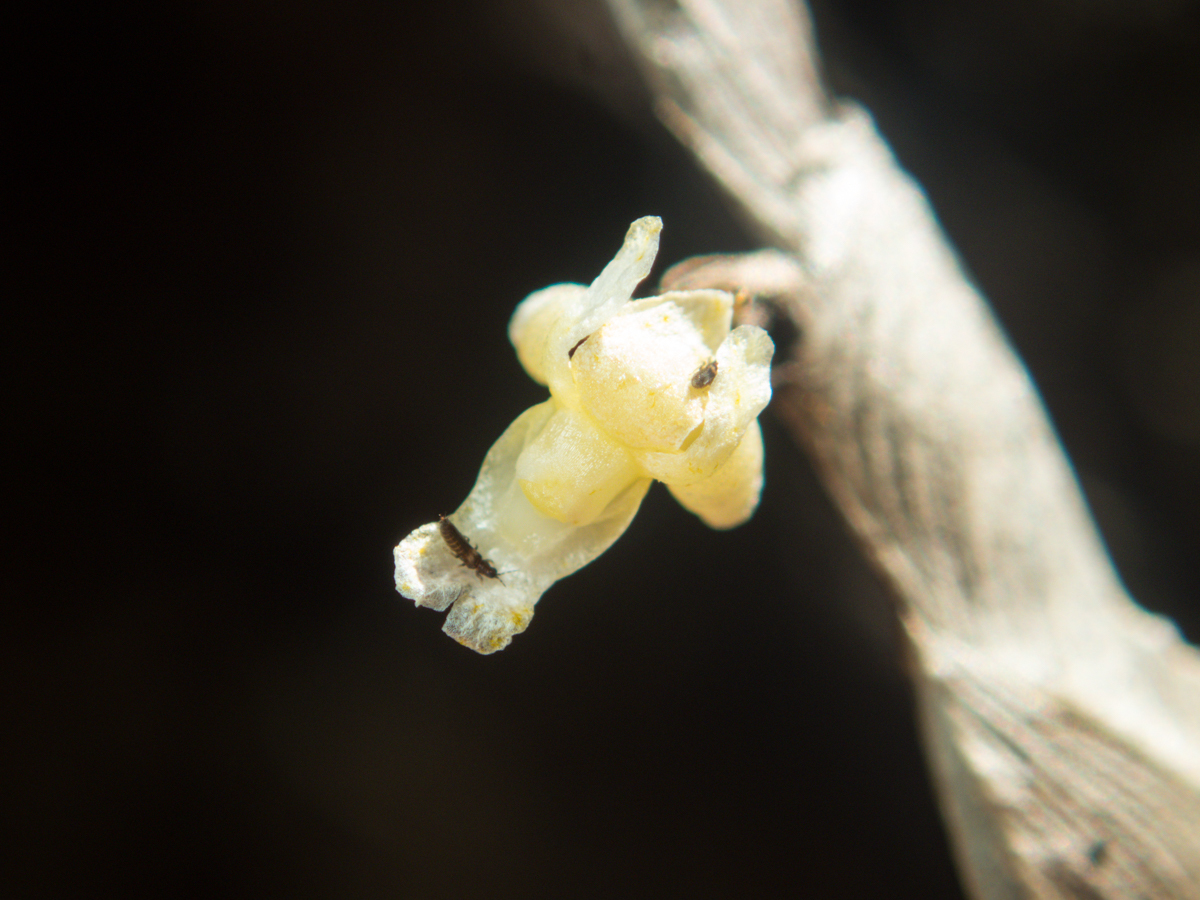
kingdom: Plantae
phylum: Tracheophyta
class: Liliopsida
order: Asparagales
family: Orchidaceae
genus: Dendrobium
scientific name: Dendrobium aloifolium
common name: Aloe-like dendrobium
